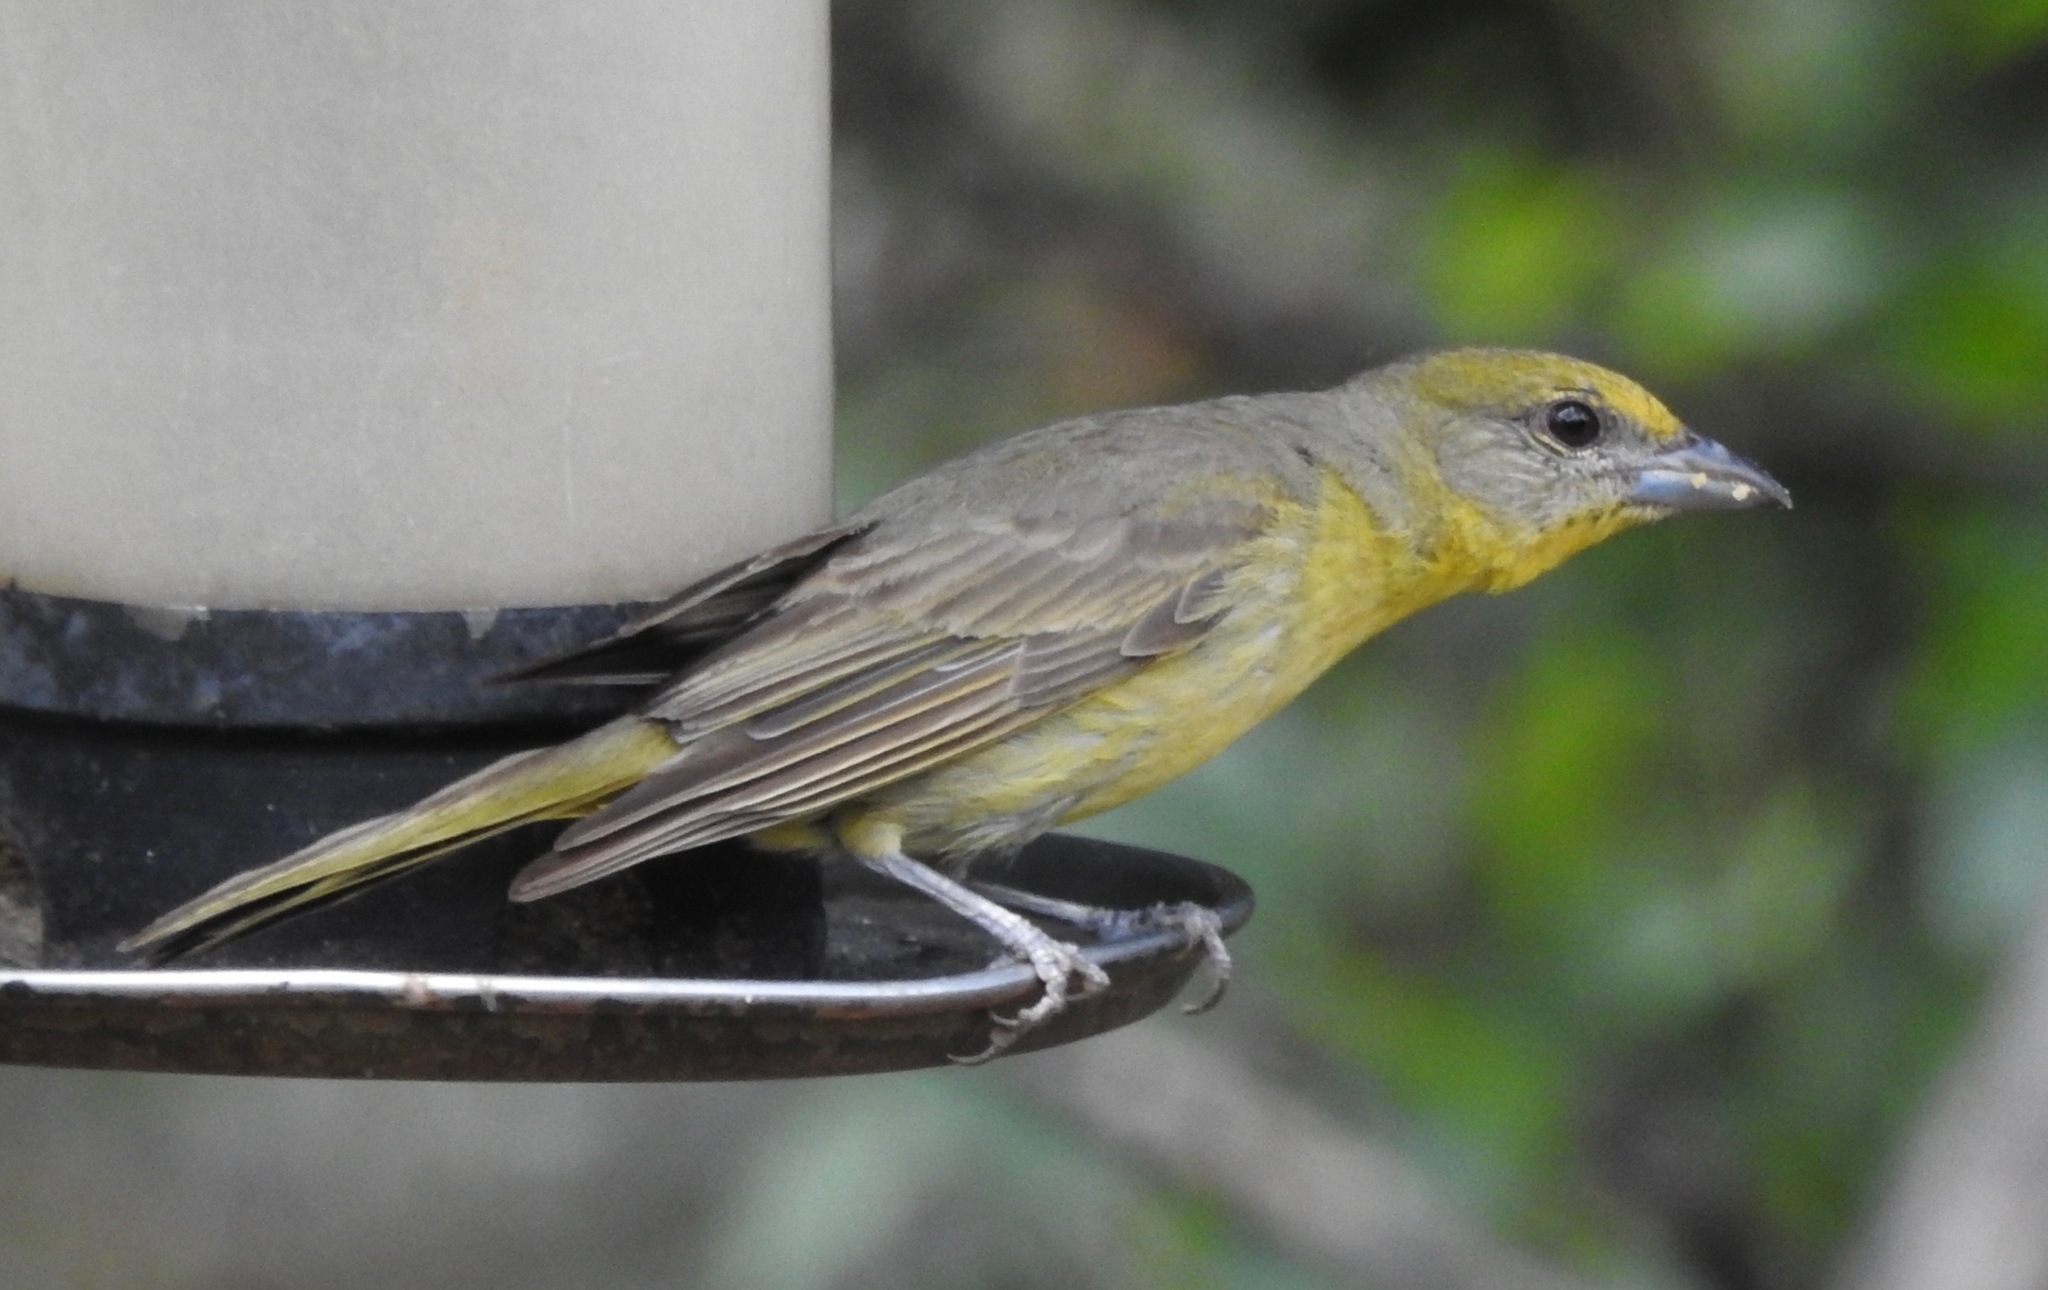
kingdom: Animalia
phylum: Chordata
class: Aves
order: Passeriformes
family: Cardinalidae
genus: Piranga
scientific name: Piranga flava
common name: Red tanager
